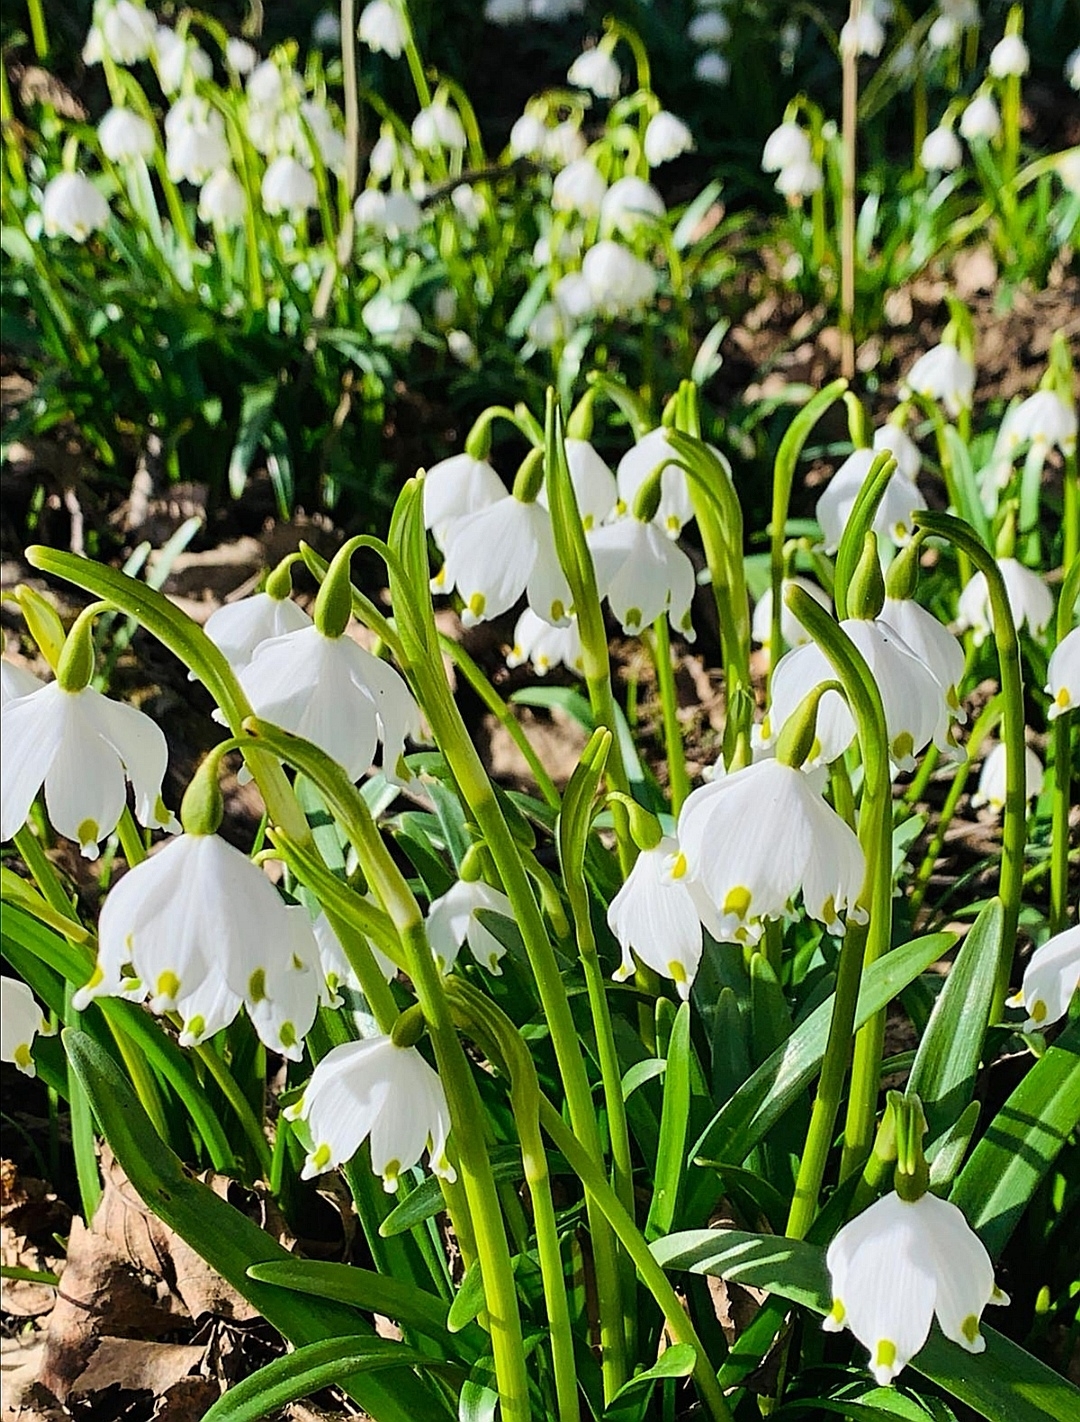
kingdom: Plantae
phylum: Tracheophyta
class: Liliopsida
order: Asparagales
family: Amaryllidaceae
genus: Leucojum
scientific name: Leucojum vernum
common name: Spring snowflake
